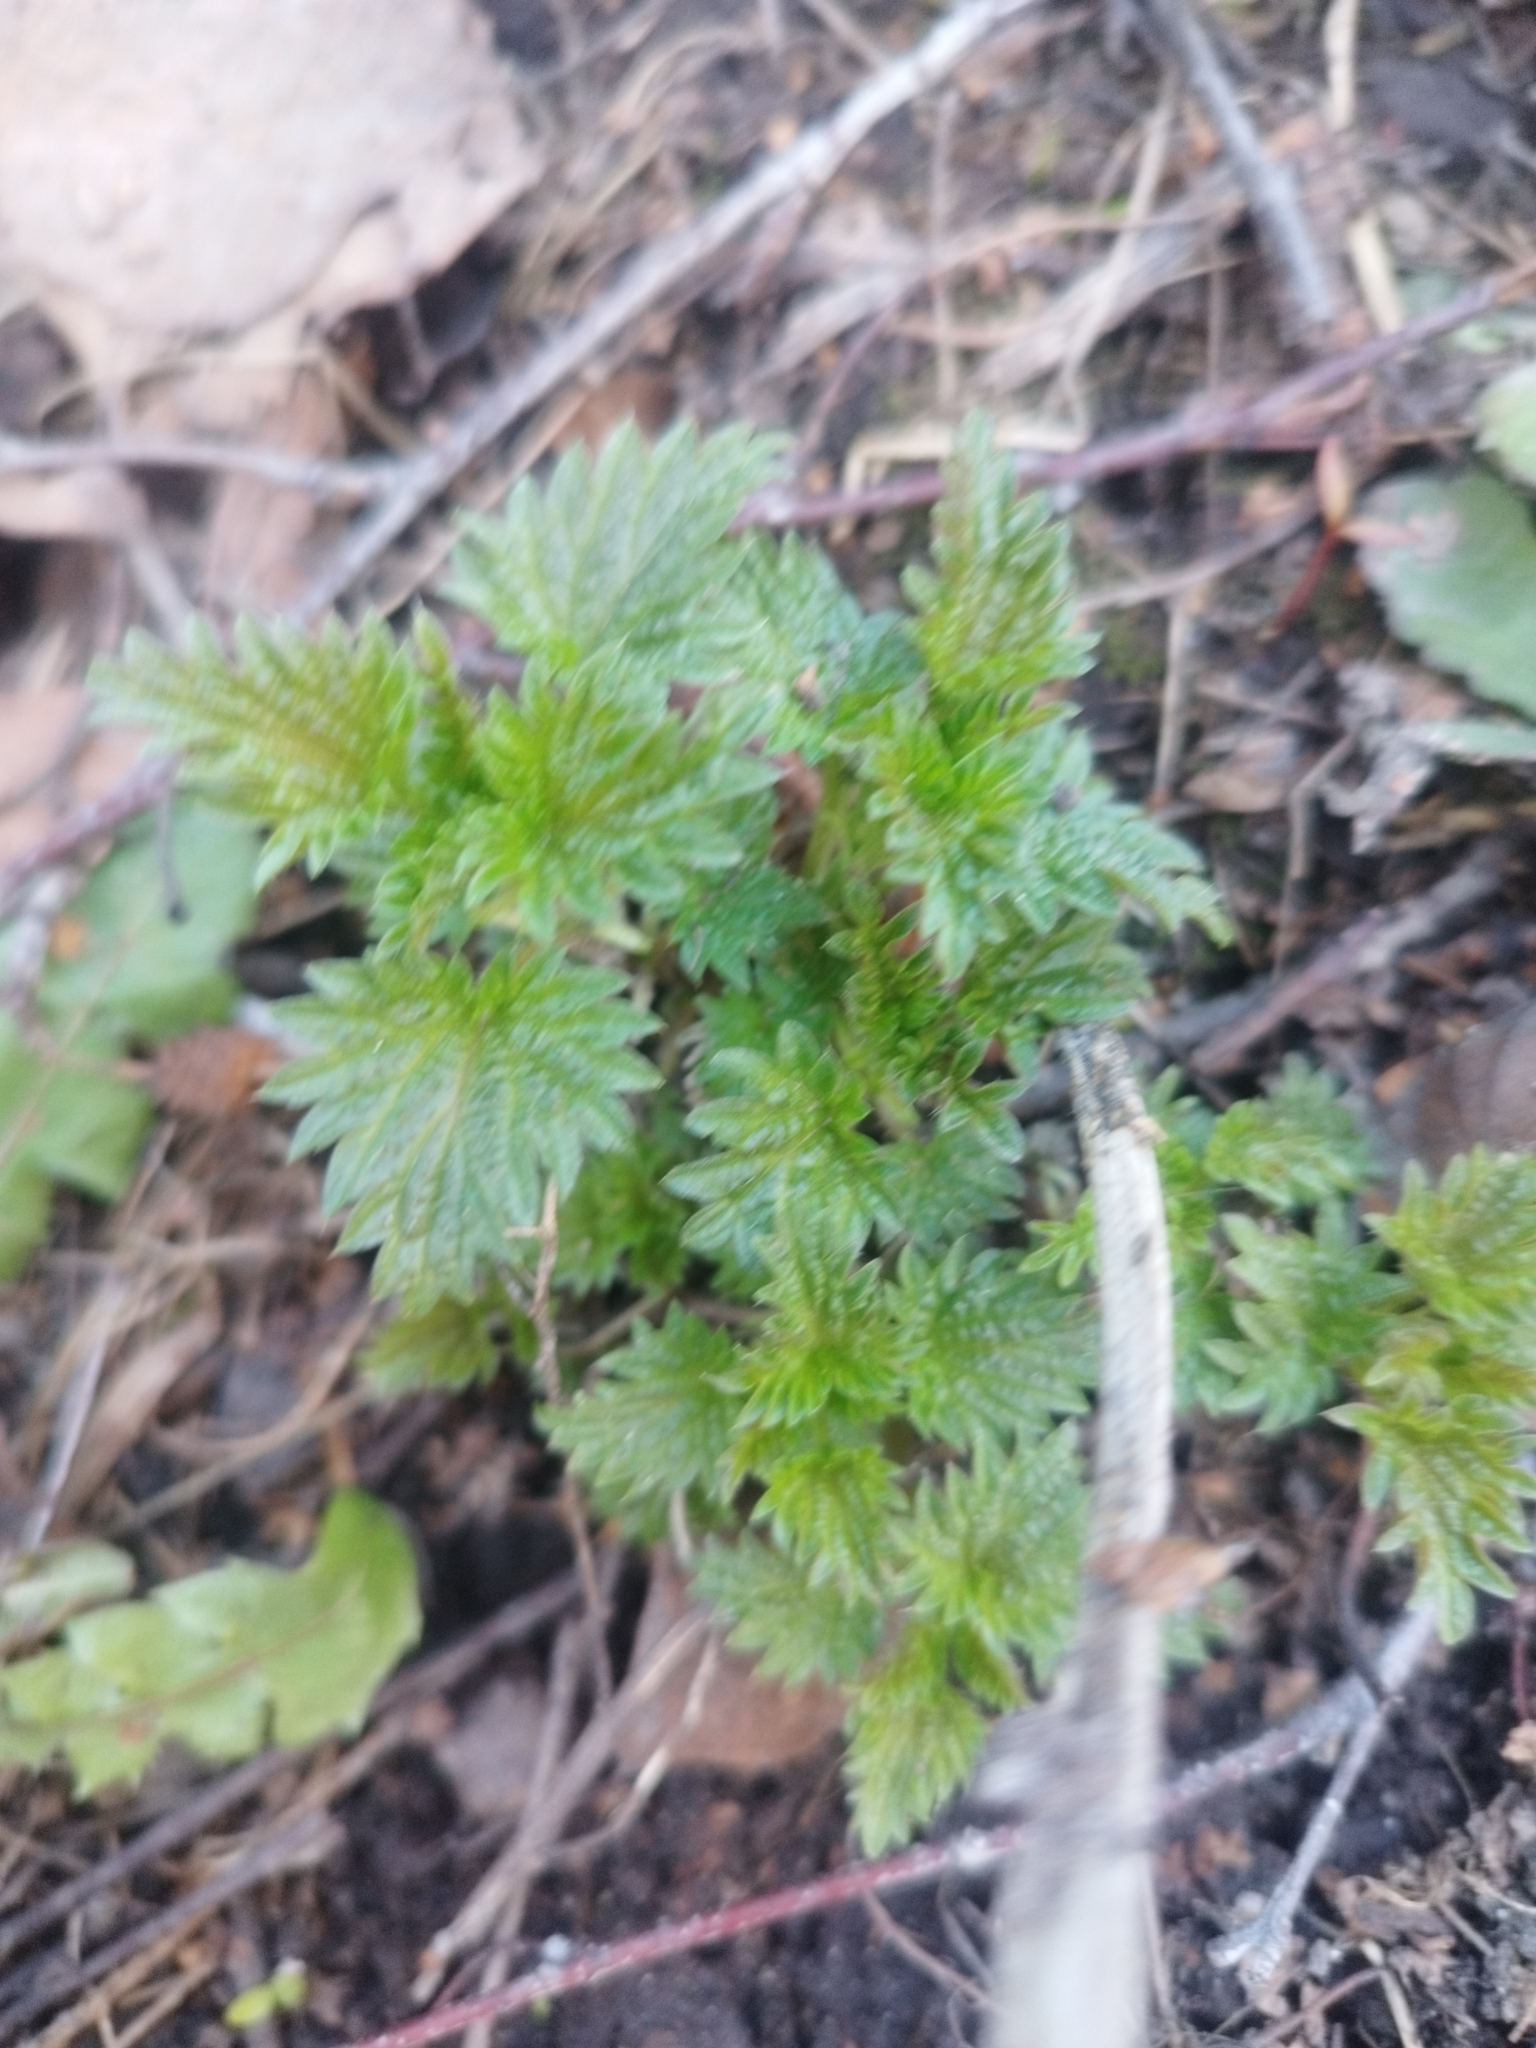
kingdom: Plantae
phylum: Tracheophyta
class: Magnoliopsida
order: Rosales
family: Urticaceae
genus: Urtica
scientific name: Urtica dioica
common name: Common nettle
